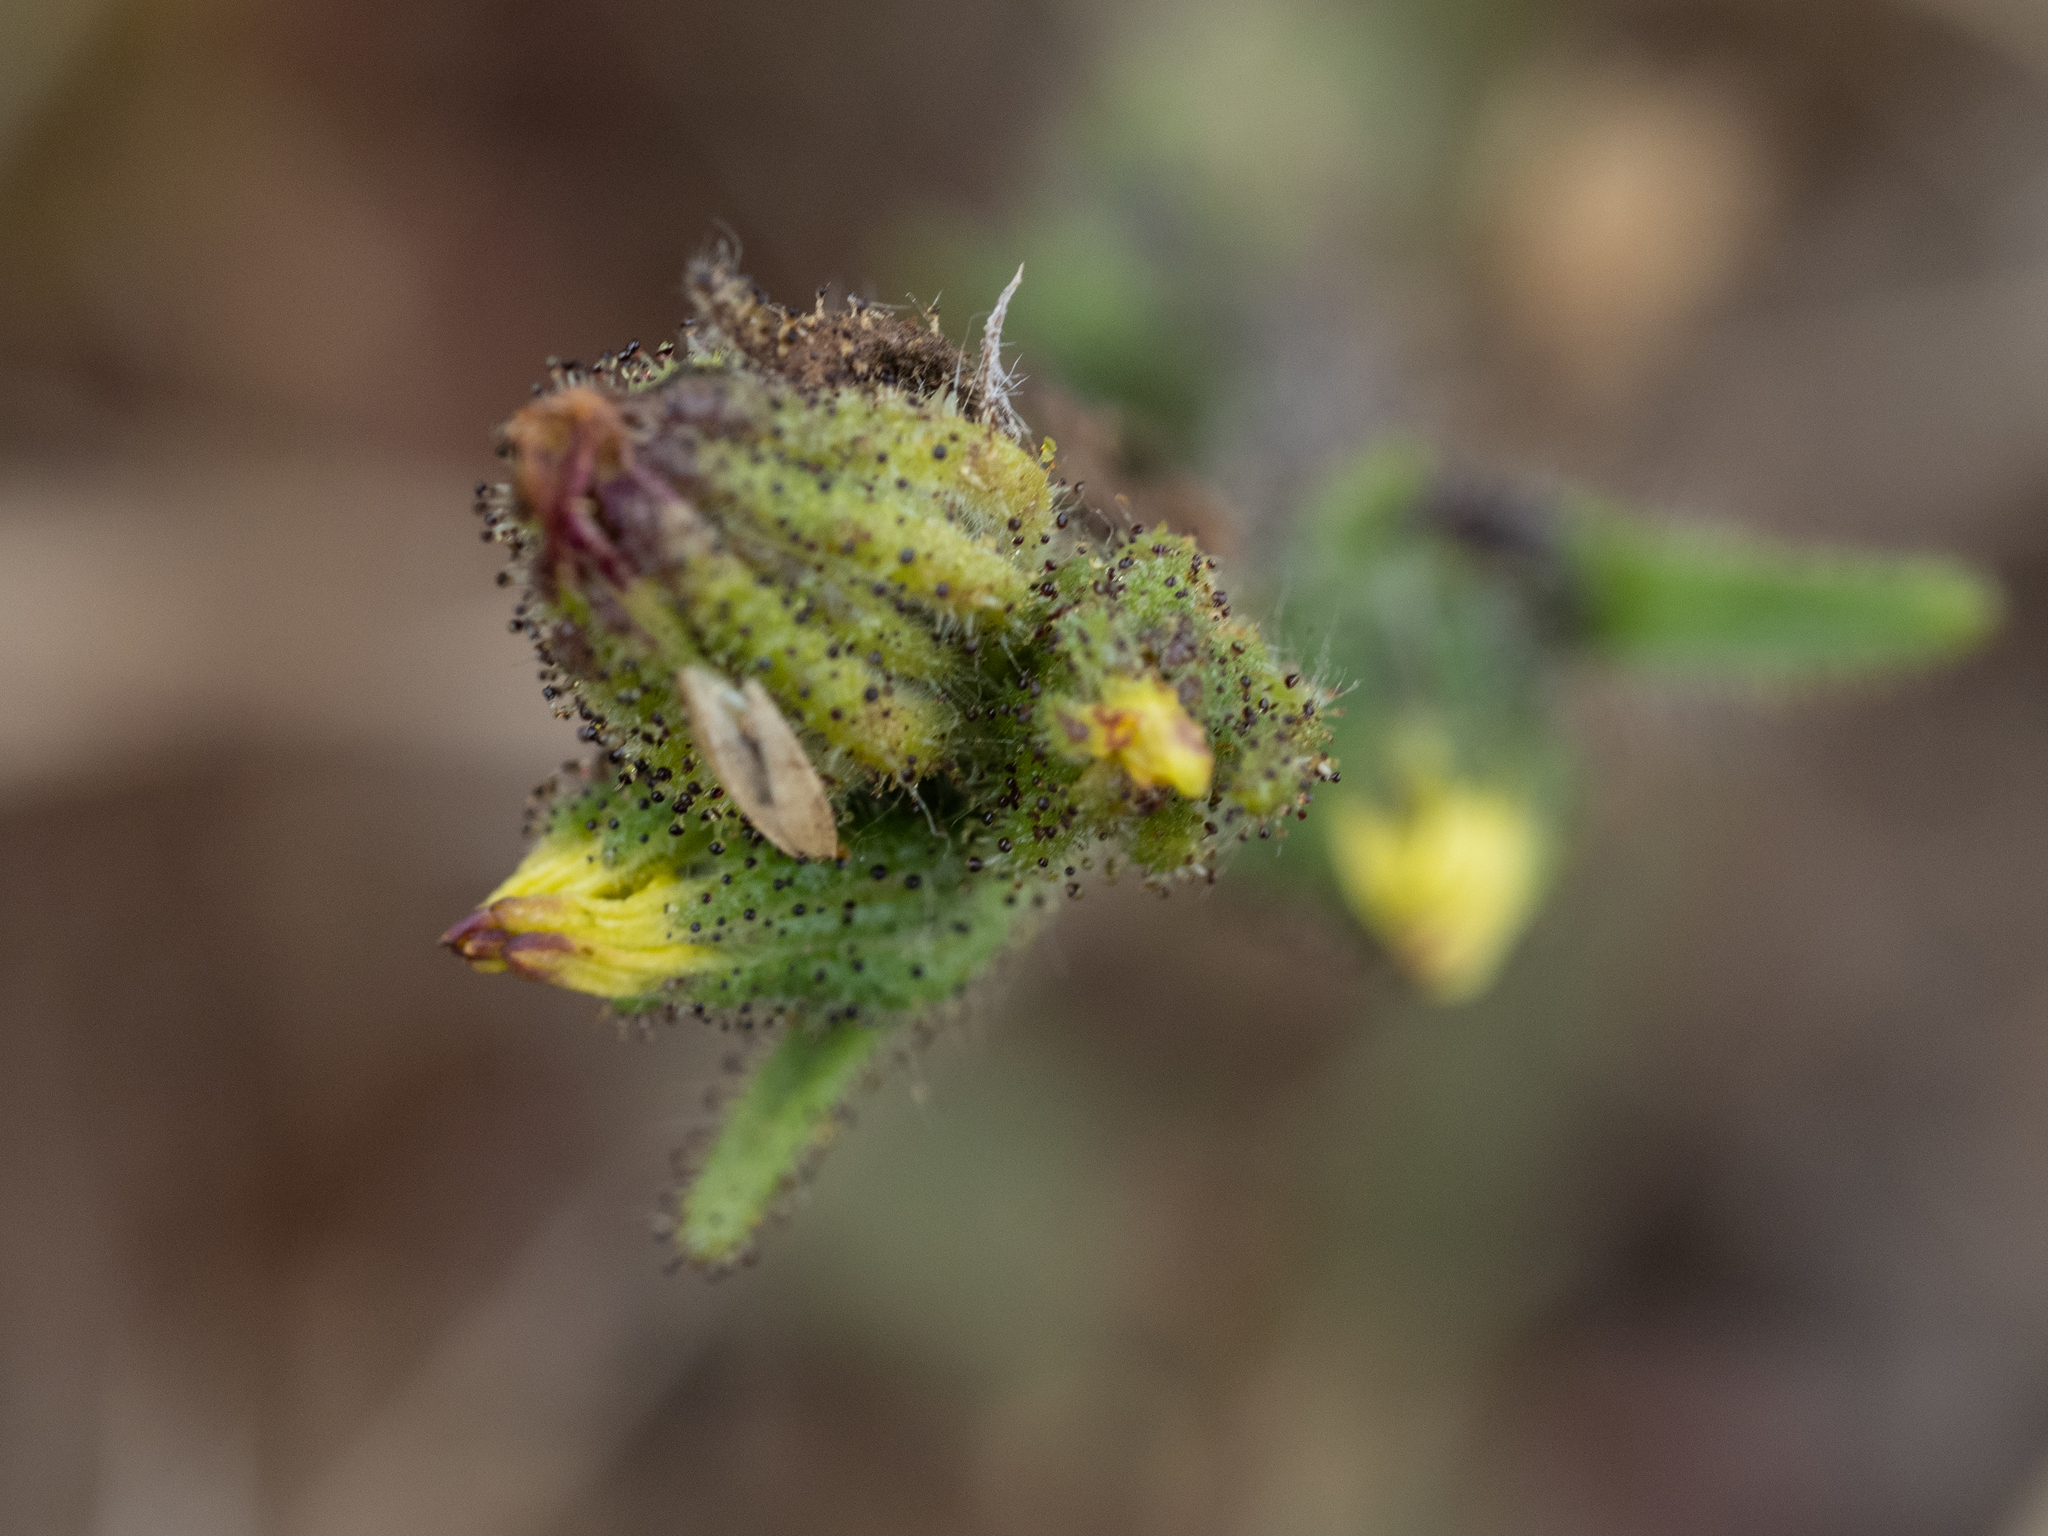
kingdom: Plantae
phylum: Tracheophyta
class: Magnoliopsida
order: Asterales
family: Asteraceae
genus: Madia
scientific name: Madia sativa
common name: Coast tarweed
